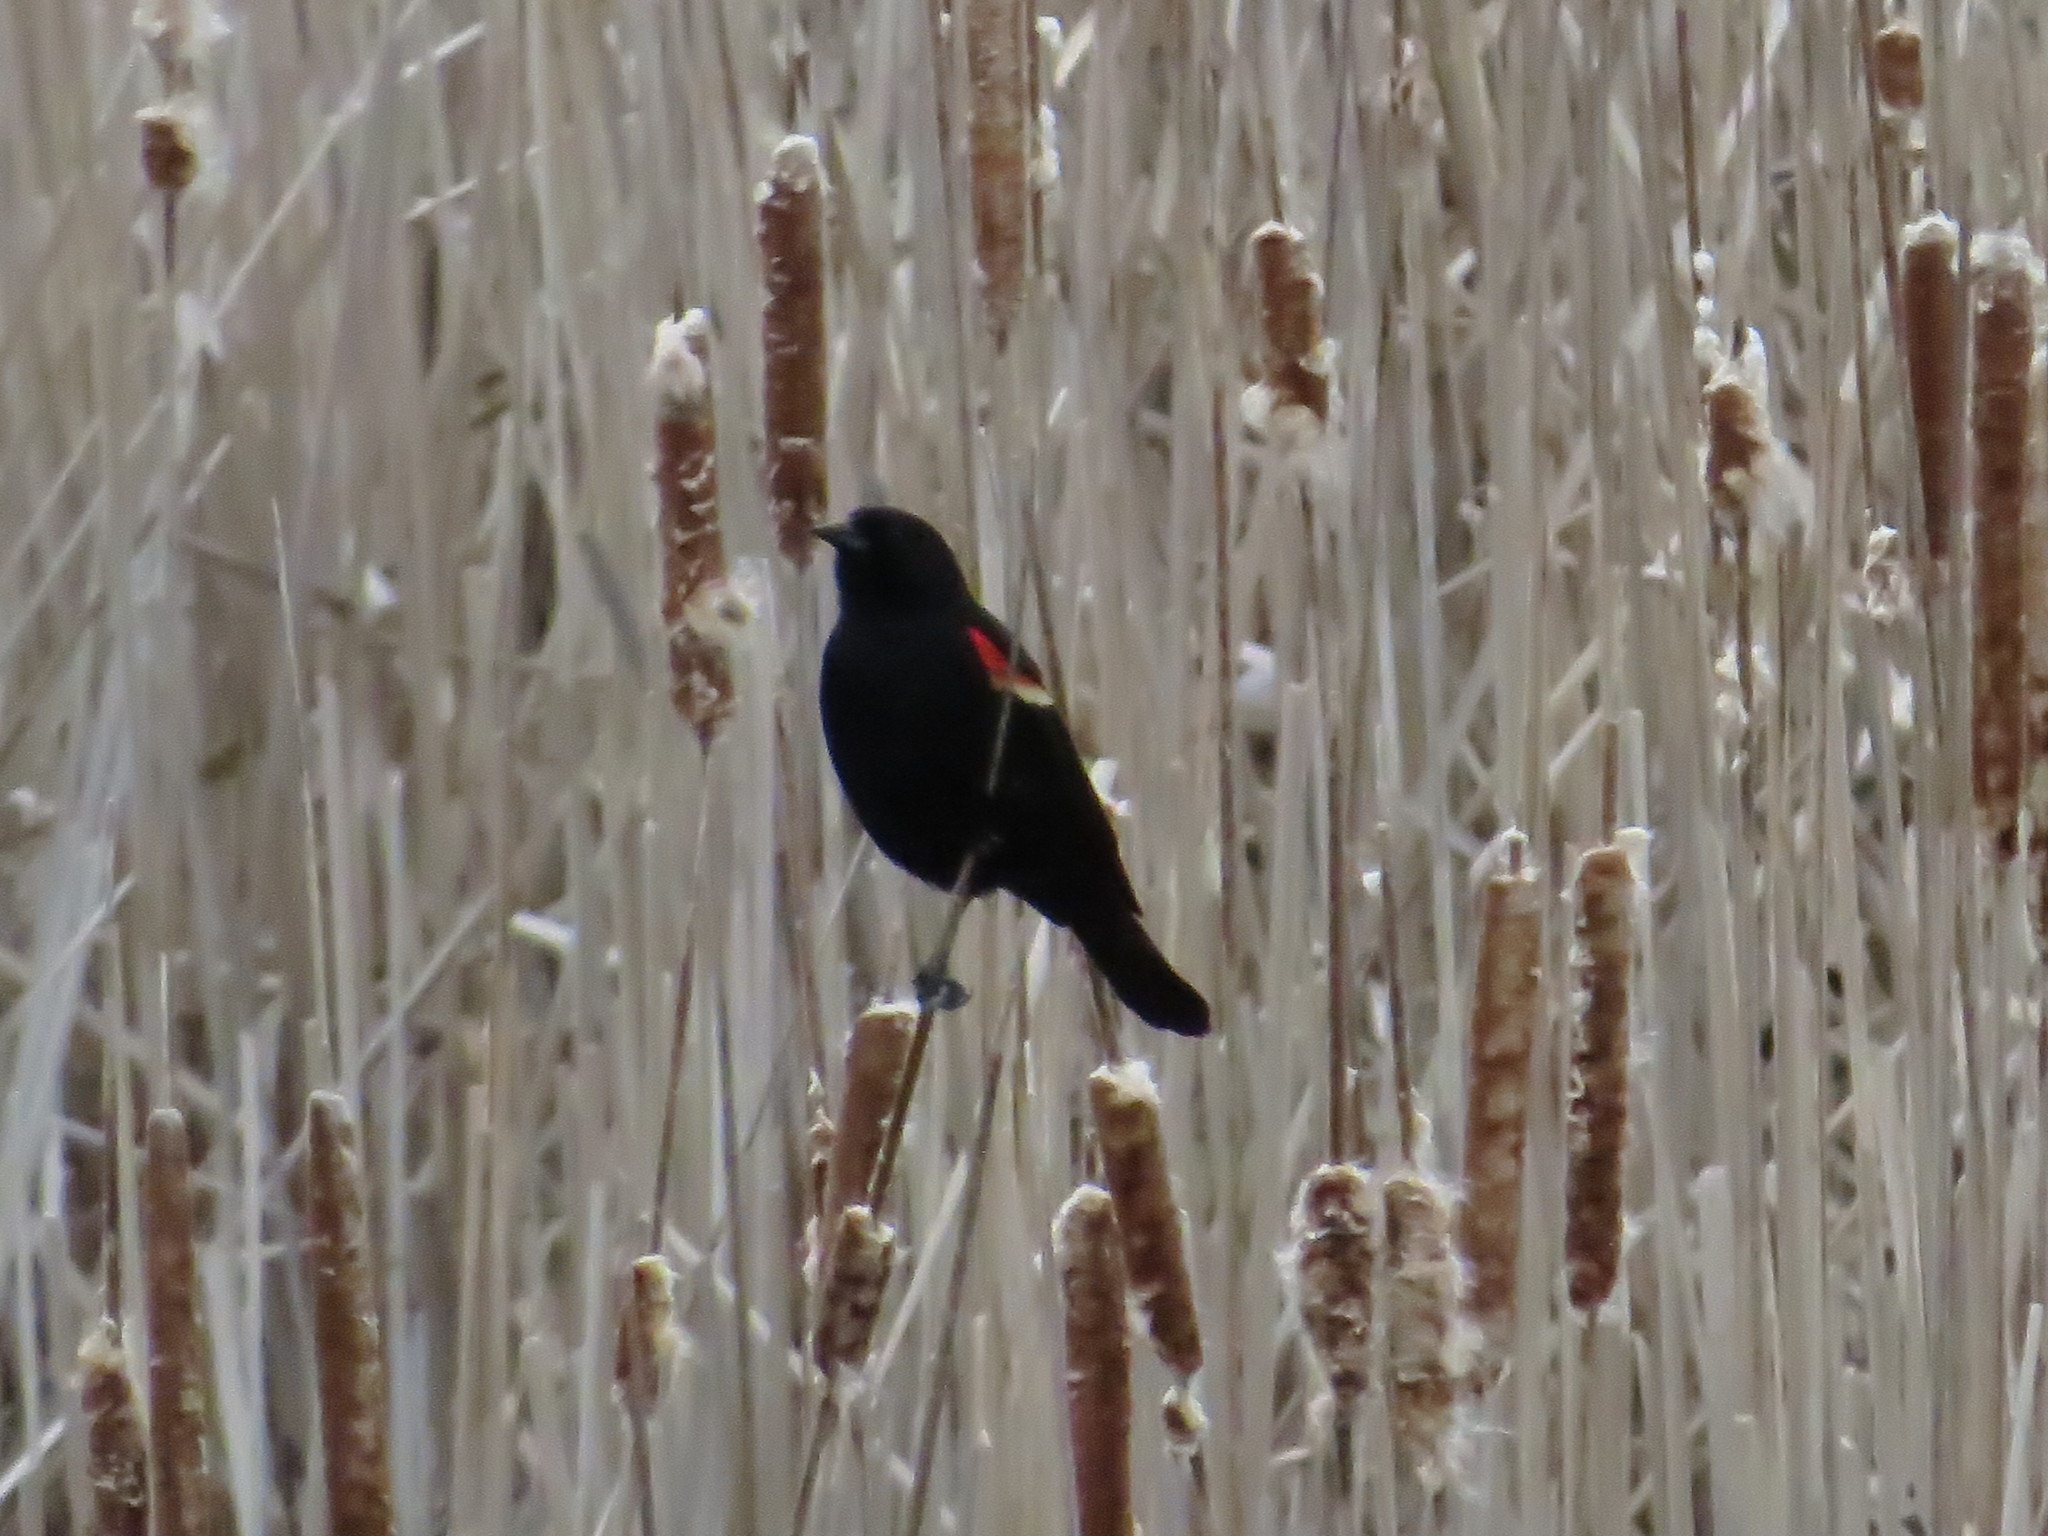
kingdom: Animalia
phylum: Chordata
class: Aves
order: Passeriformes
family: Icteridae
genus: Agelaius
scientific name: Agelaius phoeniceus
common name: Red-winged blackbird
